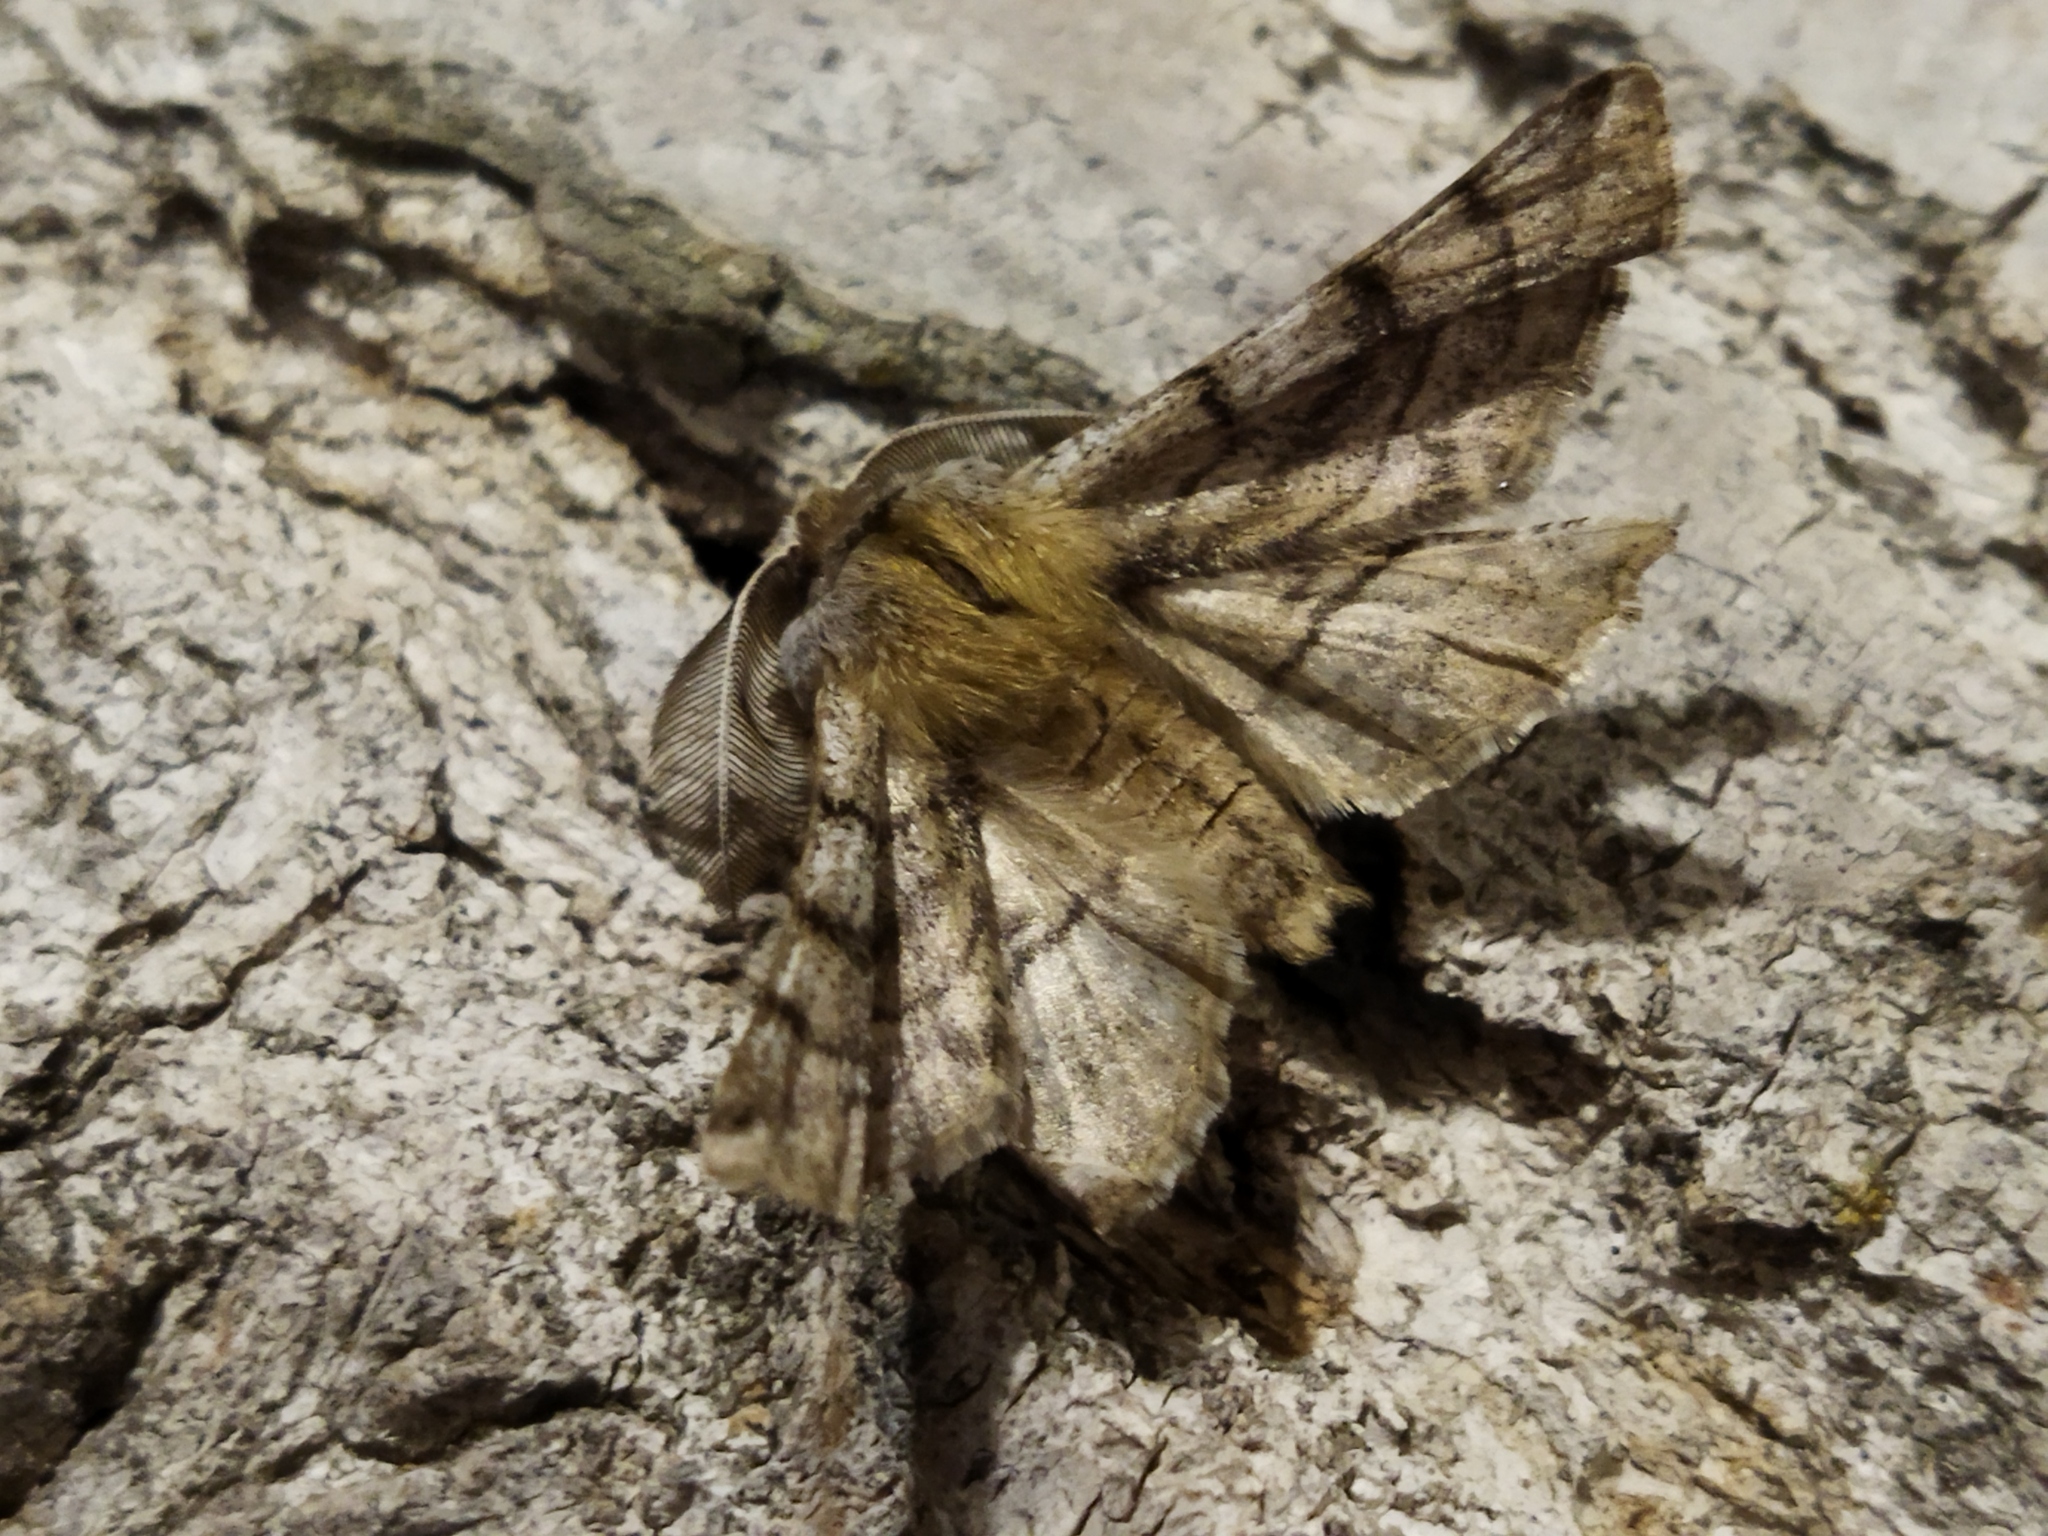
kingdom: Animalia
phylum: Arthropoda
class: Insecta
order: Lepidoptera
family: Geometridae
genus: Apochima
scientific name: Apochima flabellaria
